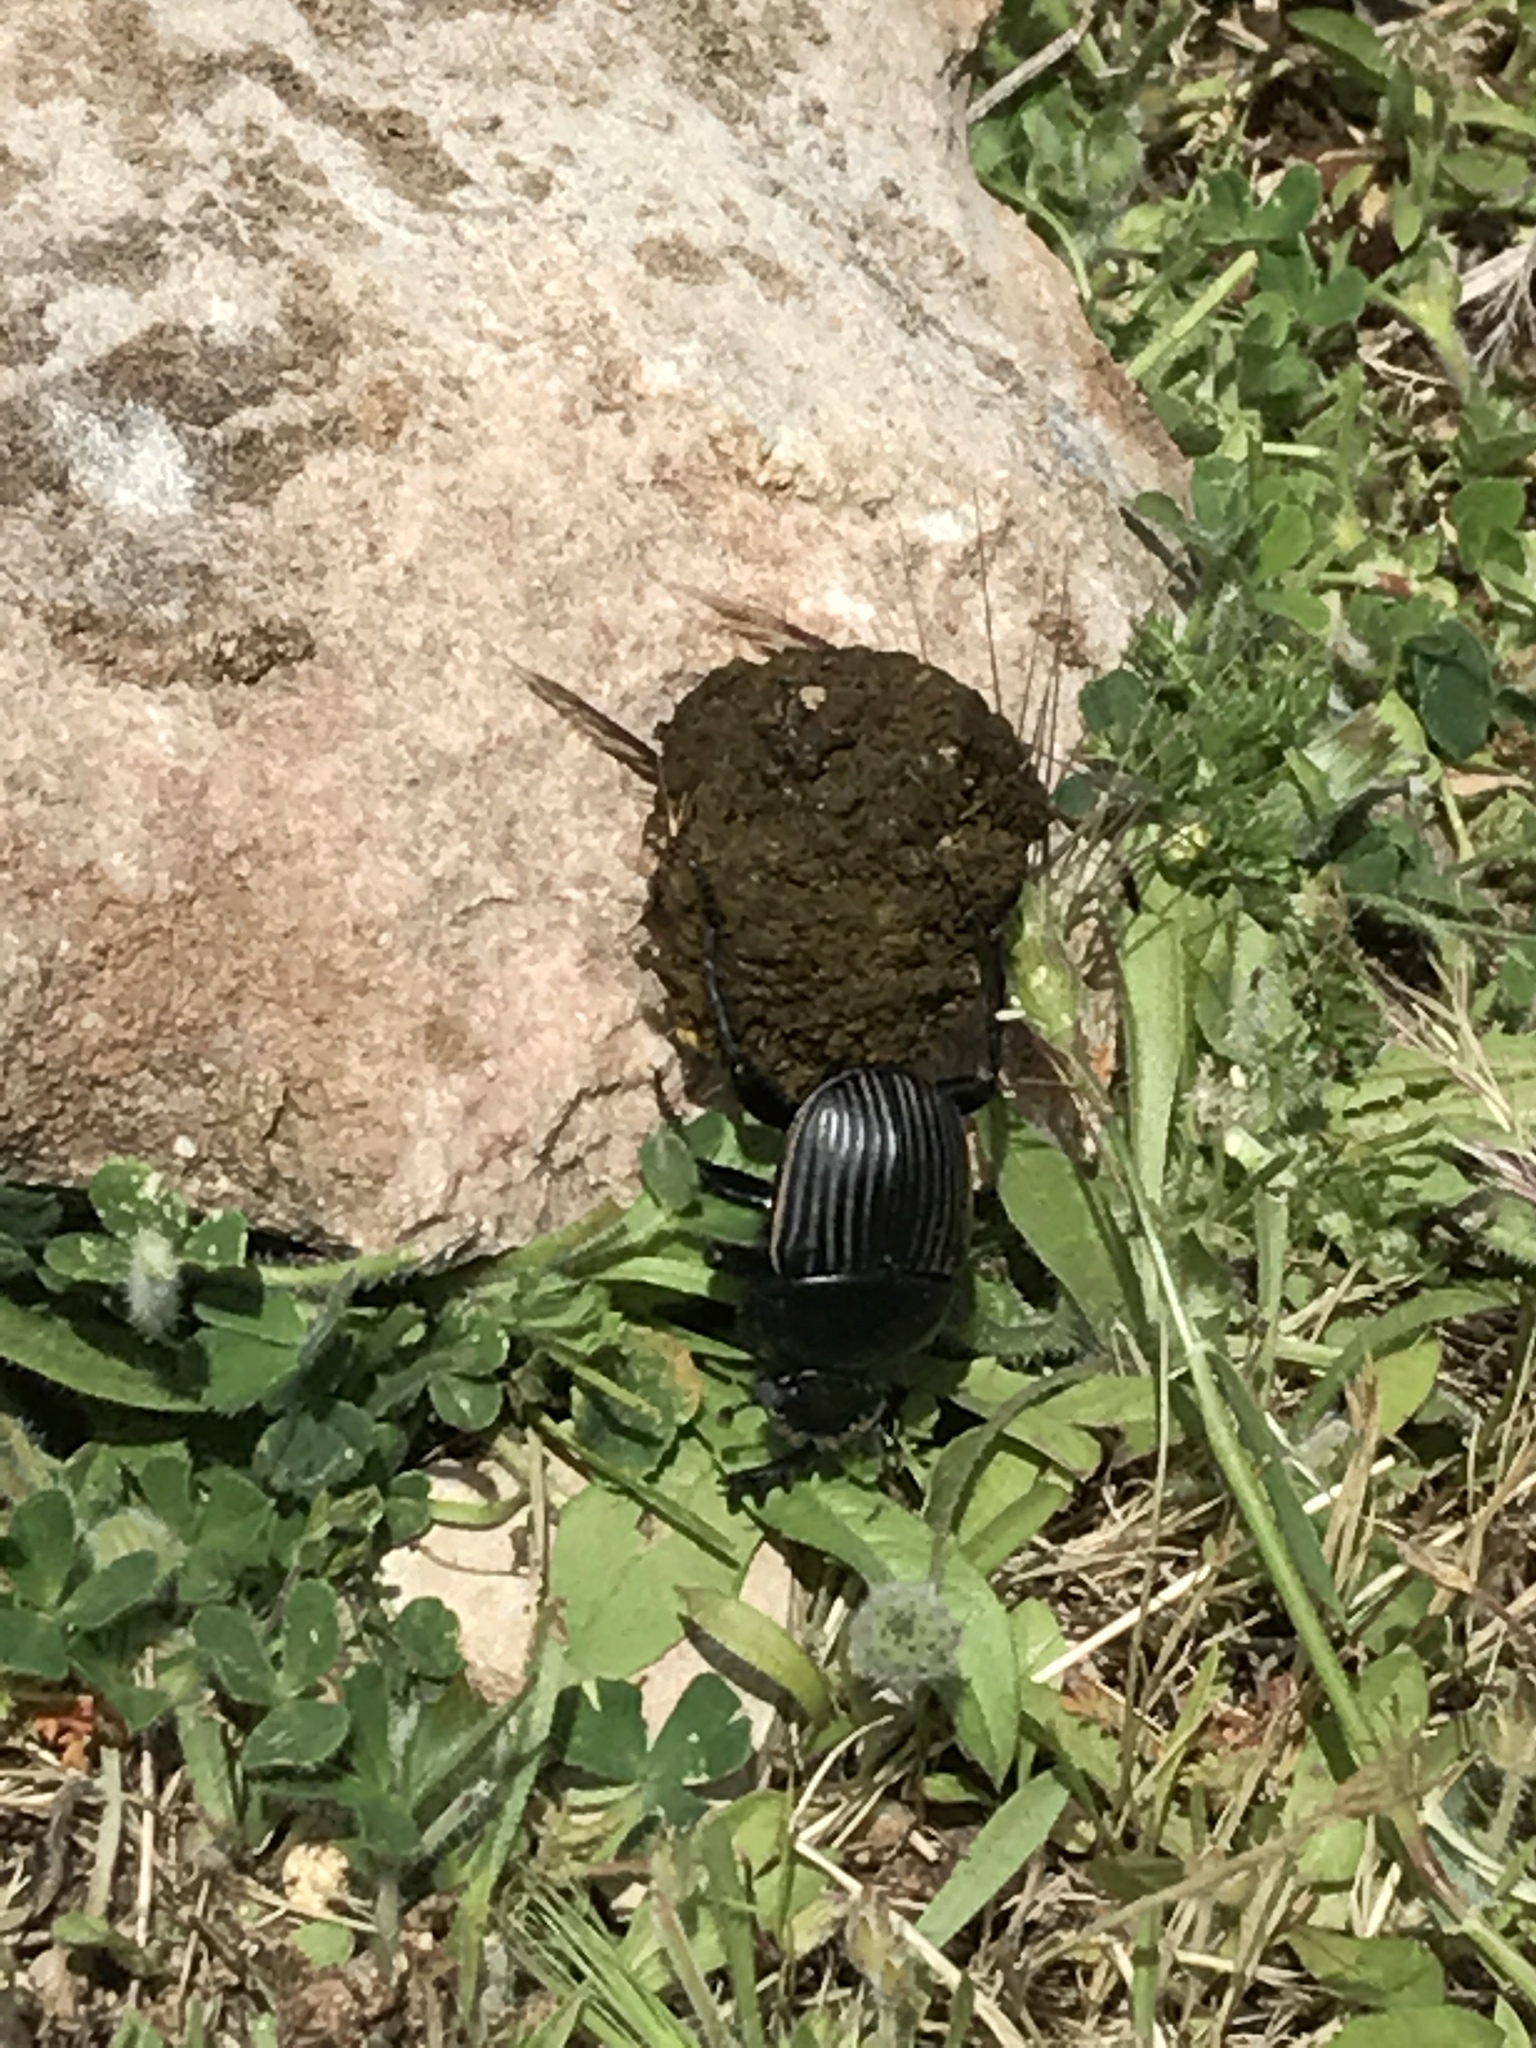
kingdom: Animalia
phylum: Arthropoda
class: Insecta
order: Coleoptera
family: Scarabaeidae
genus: Ateuchetus
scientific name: Ateuchetus laticollis
